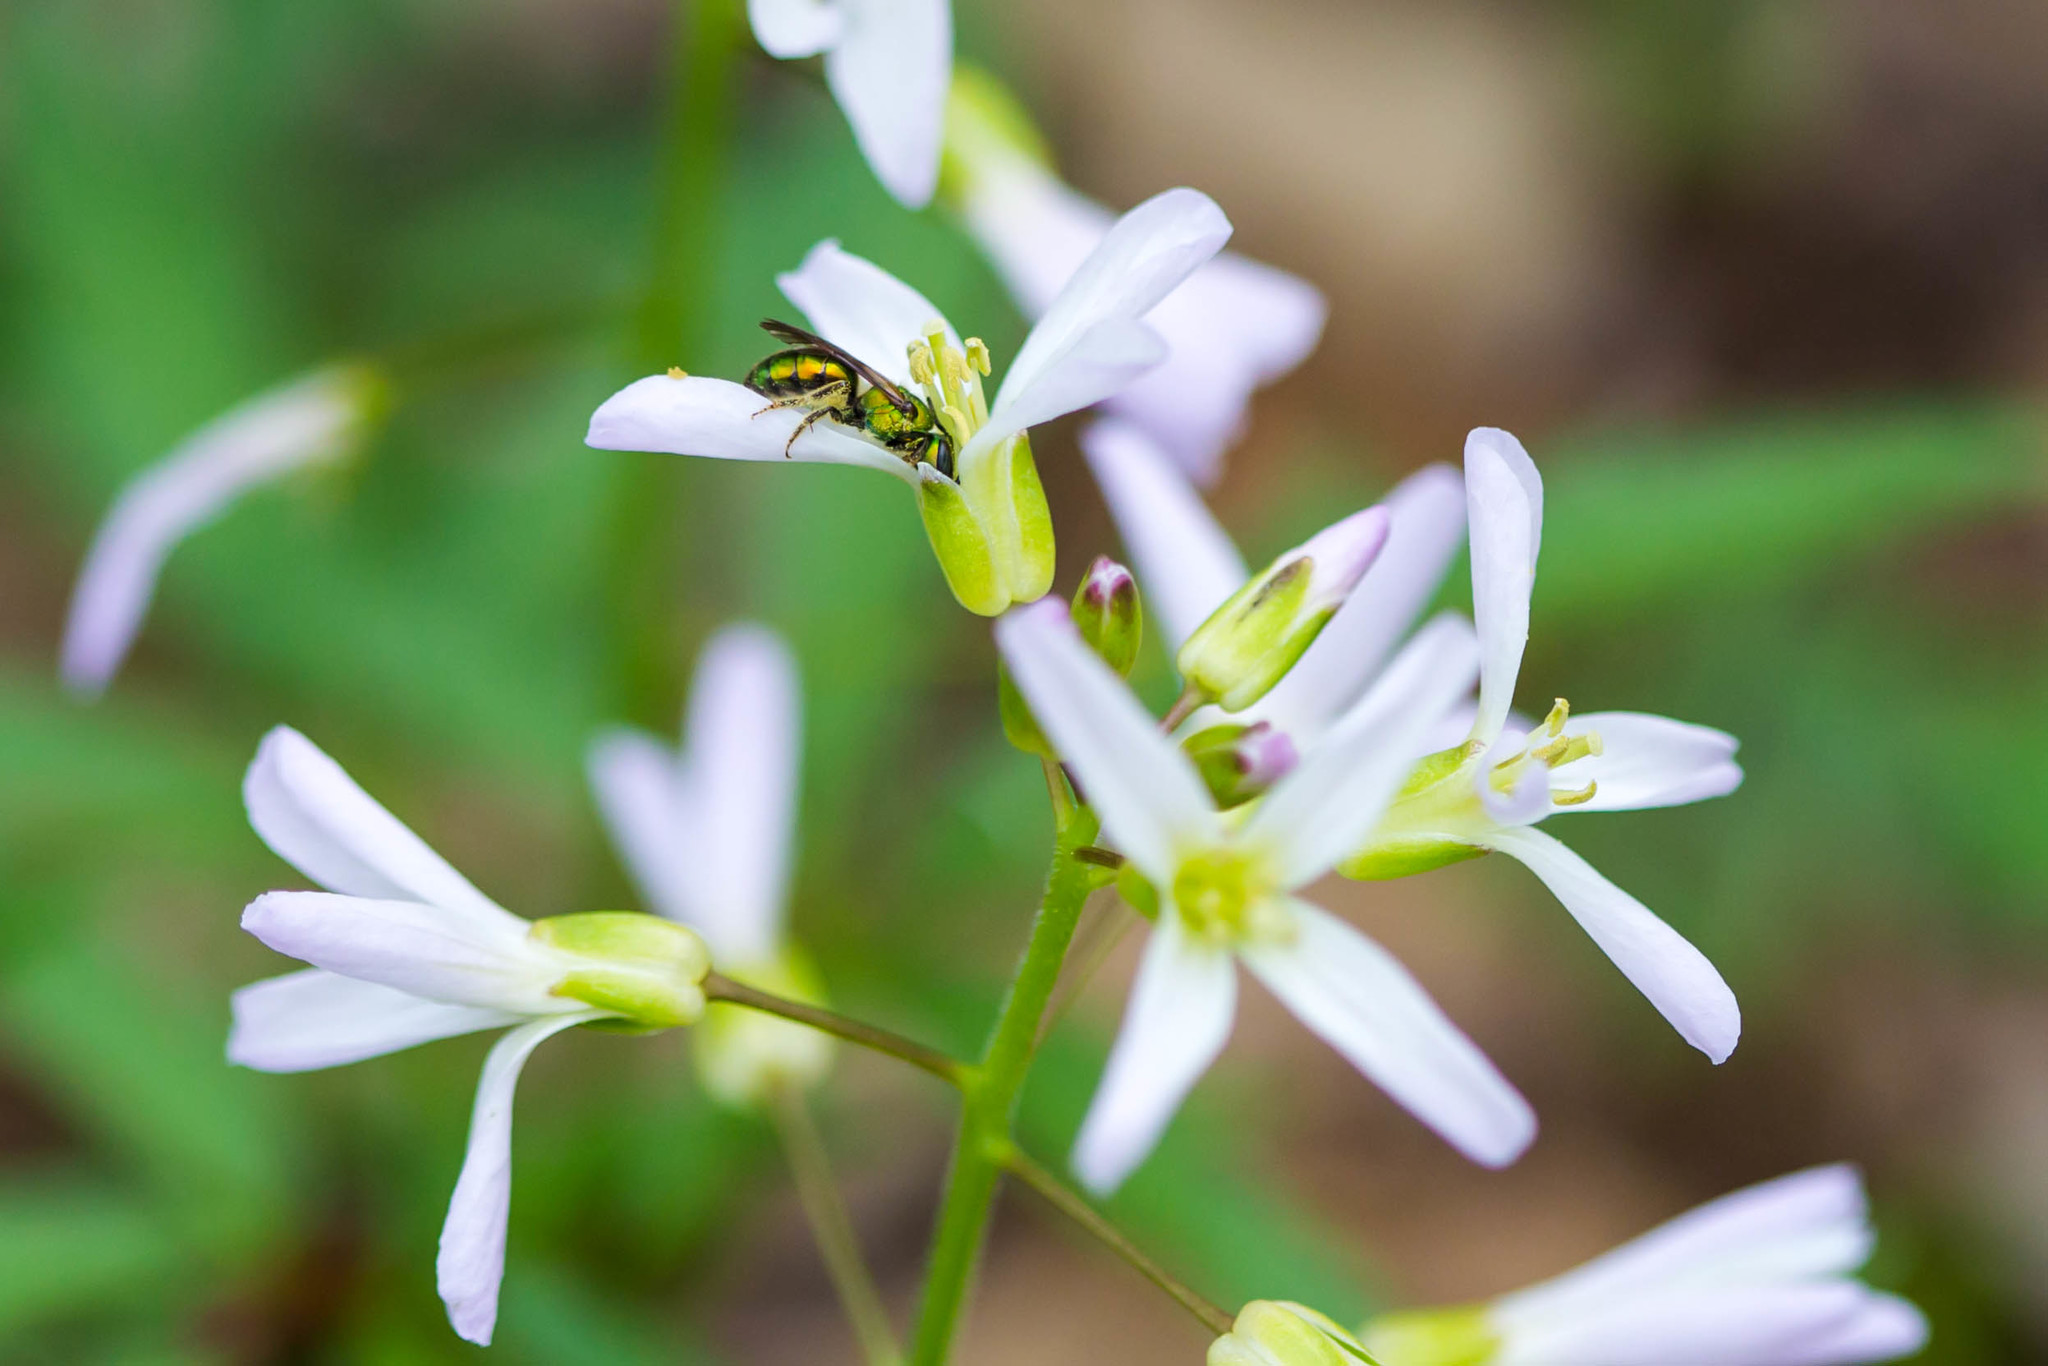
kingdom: Animalia
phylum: Arthropoda
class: Insecta
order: Hymenoptera
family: Halictidae
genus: Augochlora
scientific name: Augochlora pura
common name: Pure green sweat bee
